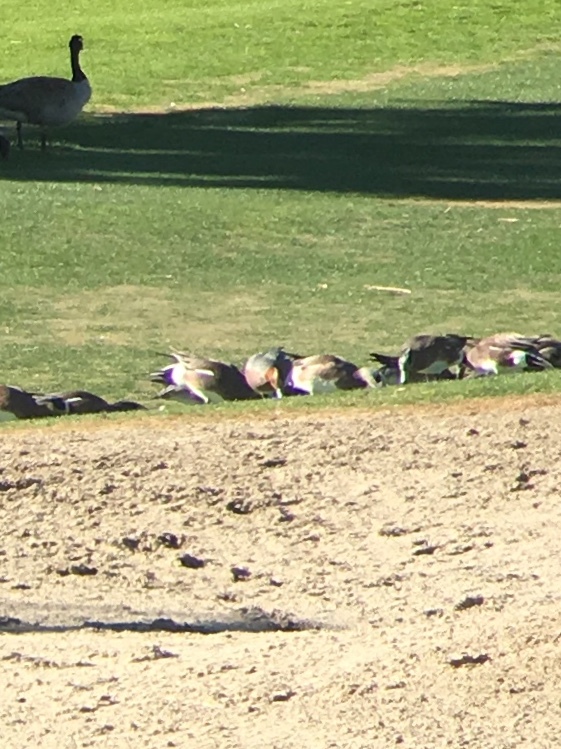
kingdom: Animalia
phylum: Chordata
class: Aves
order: Anseriformes
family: Anatidae
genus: Mareca
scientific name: Mareca penelope
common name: Eurasian wigeon
